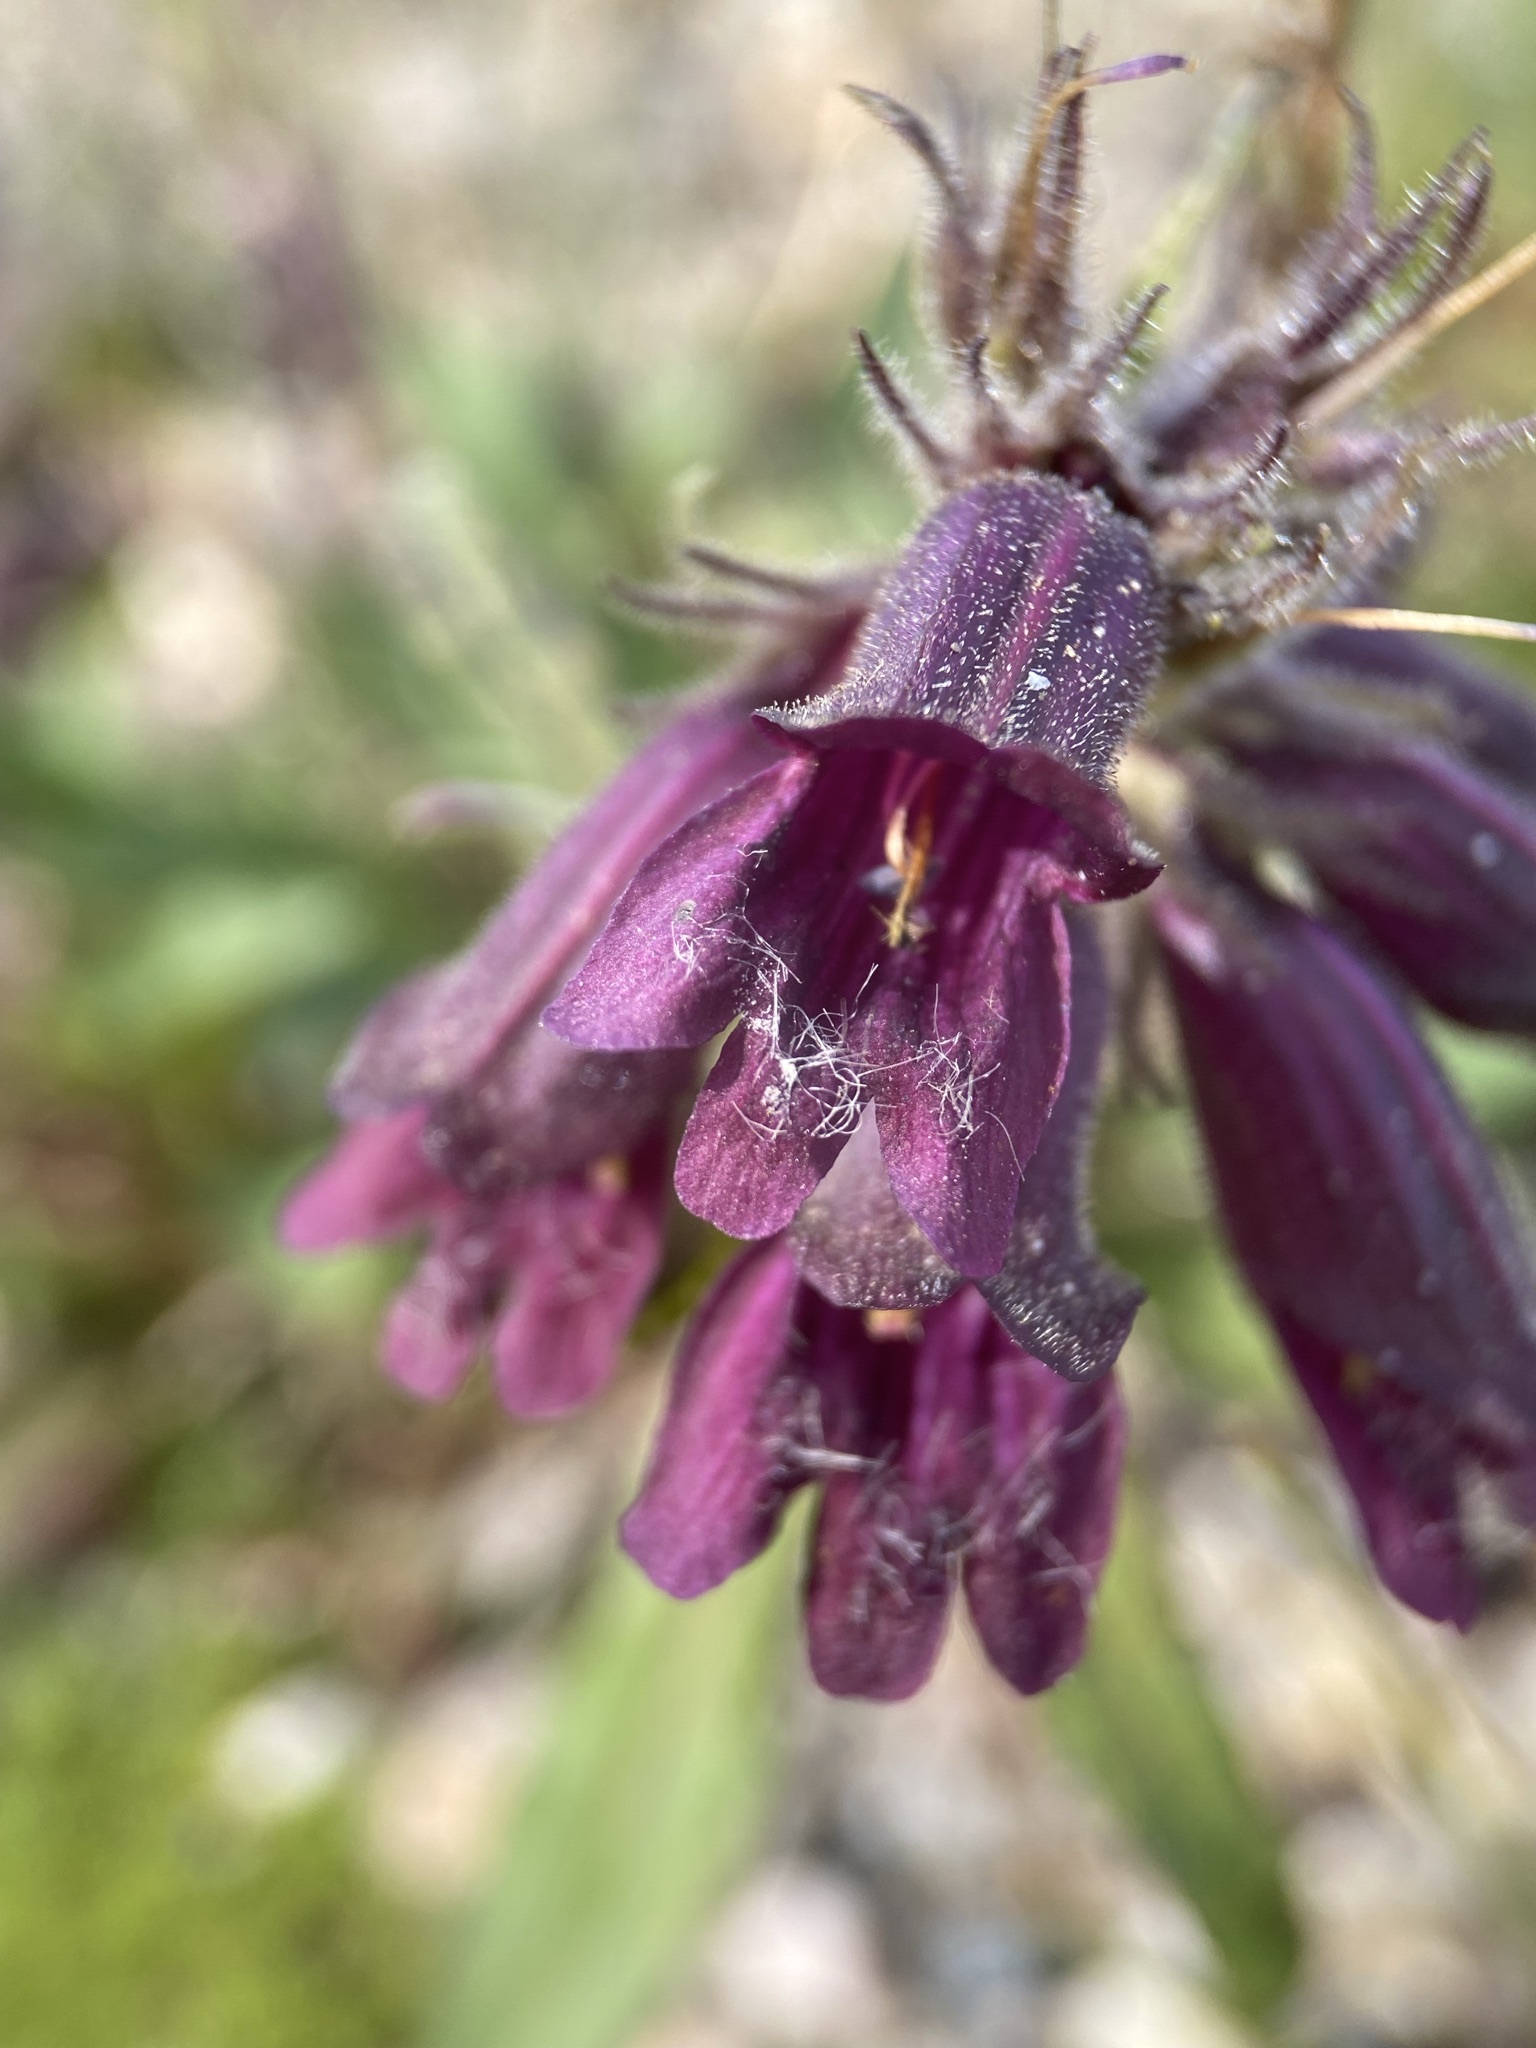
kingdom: Plantae
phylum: Tracheophyta
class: Magnoliopsida
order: Lamiales
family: Plantaginaceae
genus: Penstemon
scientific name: Penstemon whippleanus
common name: Whipple's penstemon
